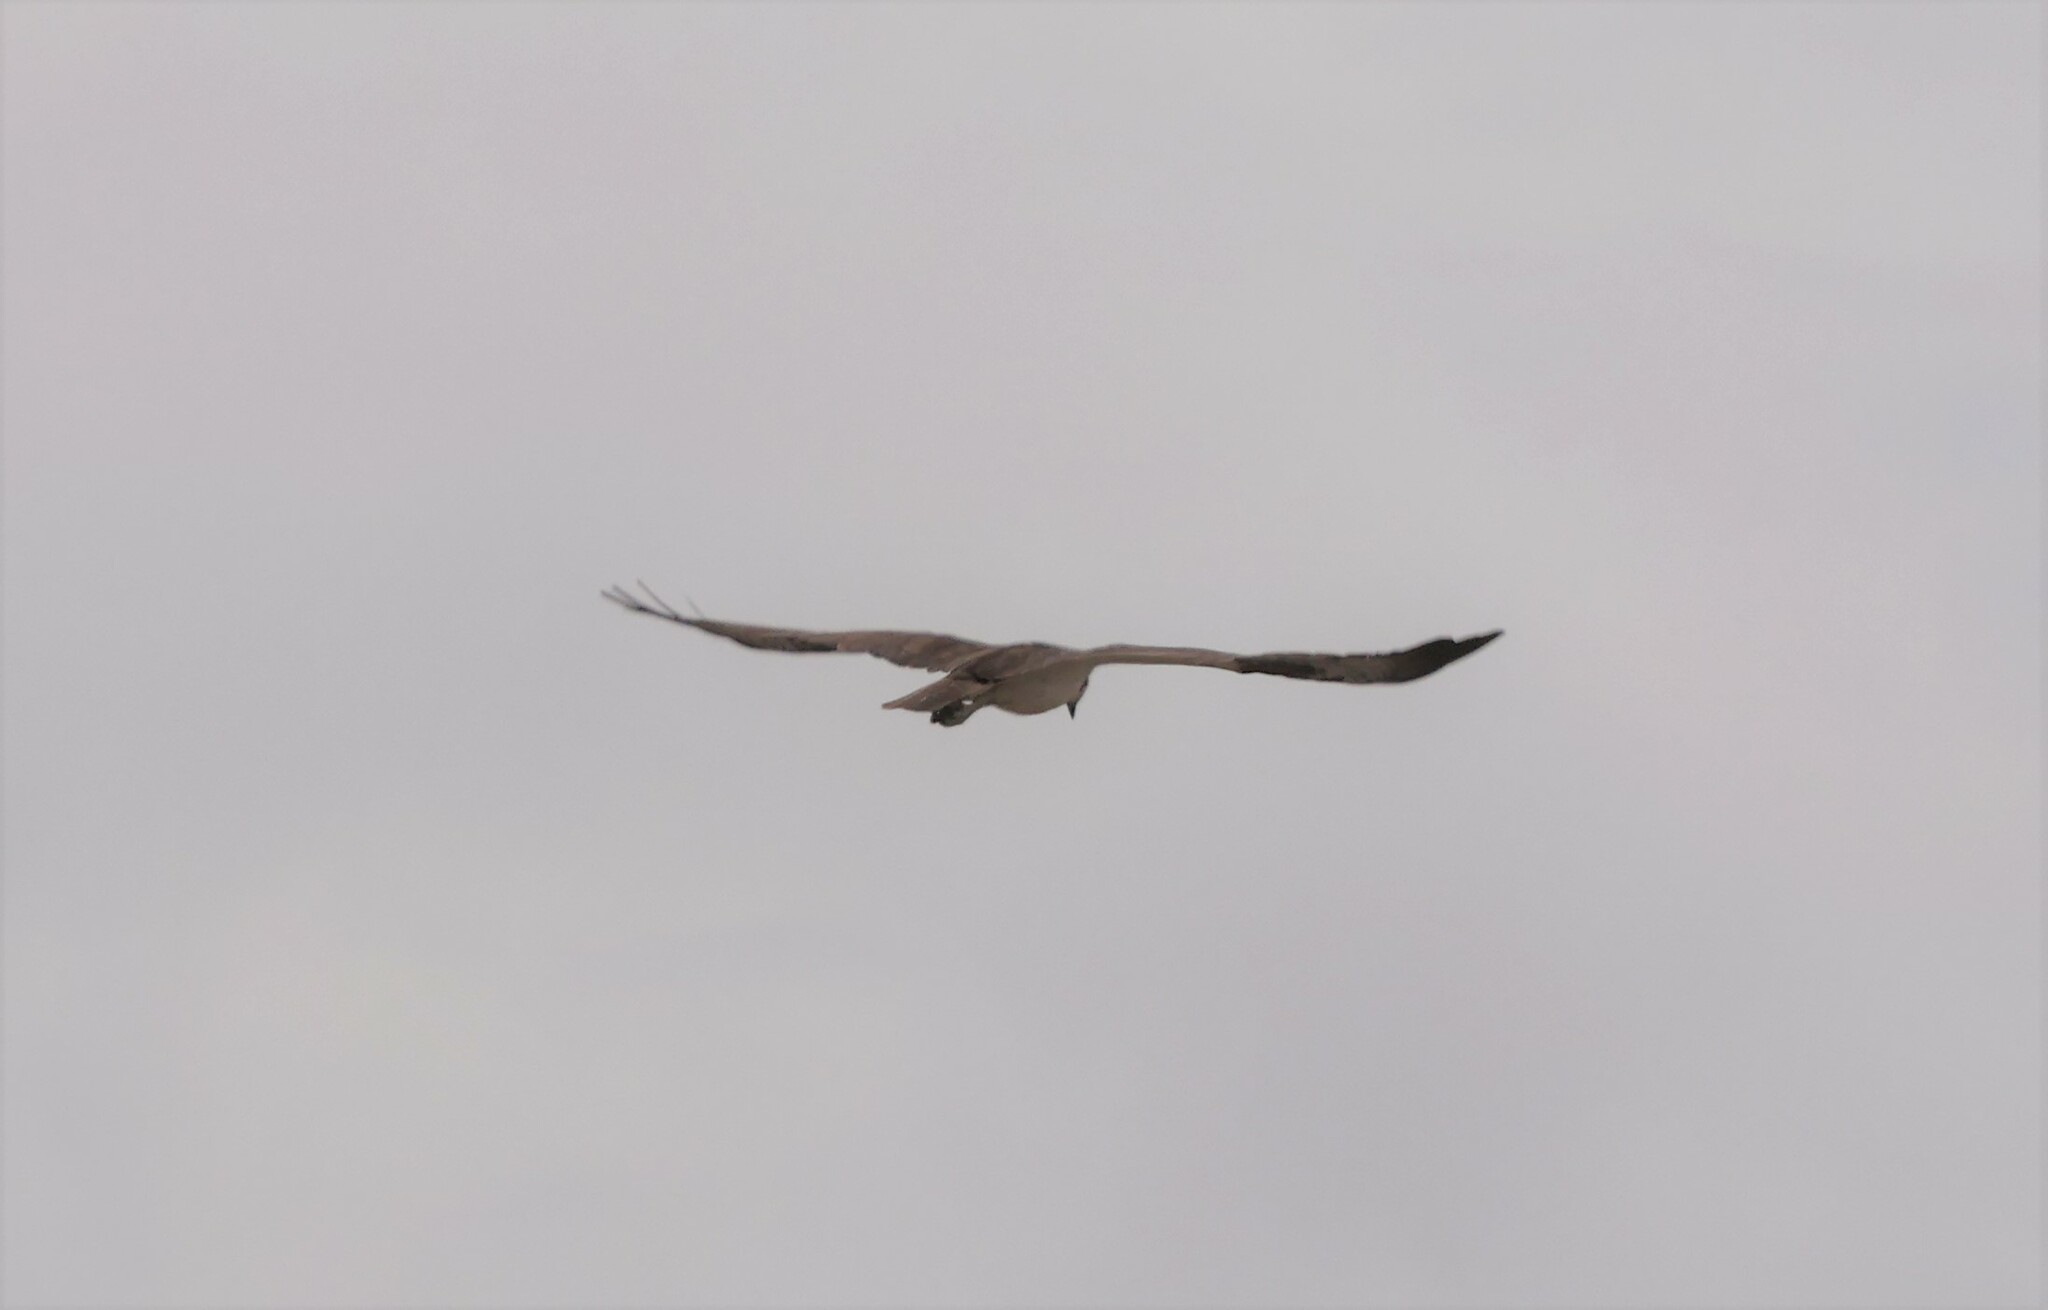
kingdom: Animalia
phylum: Chordata
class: Aves
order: Accipitriformes
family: Pandionidae
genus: Pandion
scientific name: Pandion haliaetus
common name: Osprey
